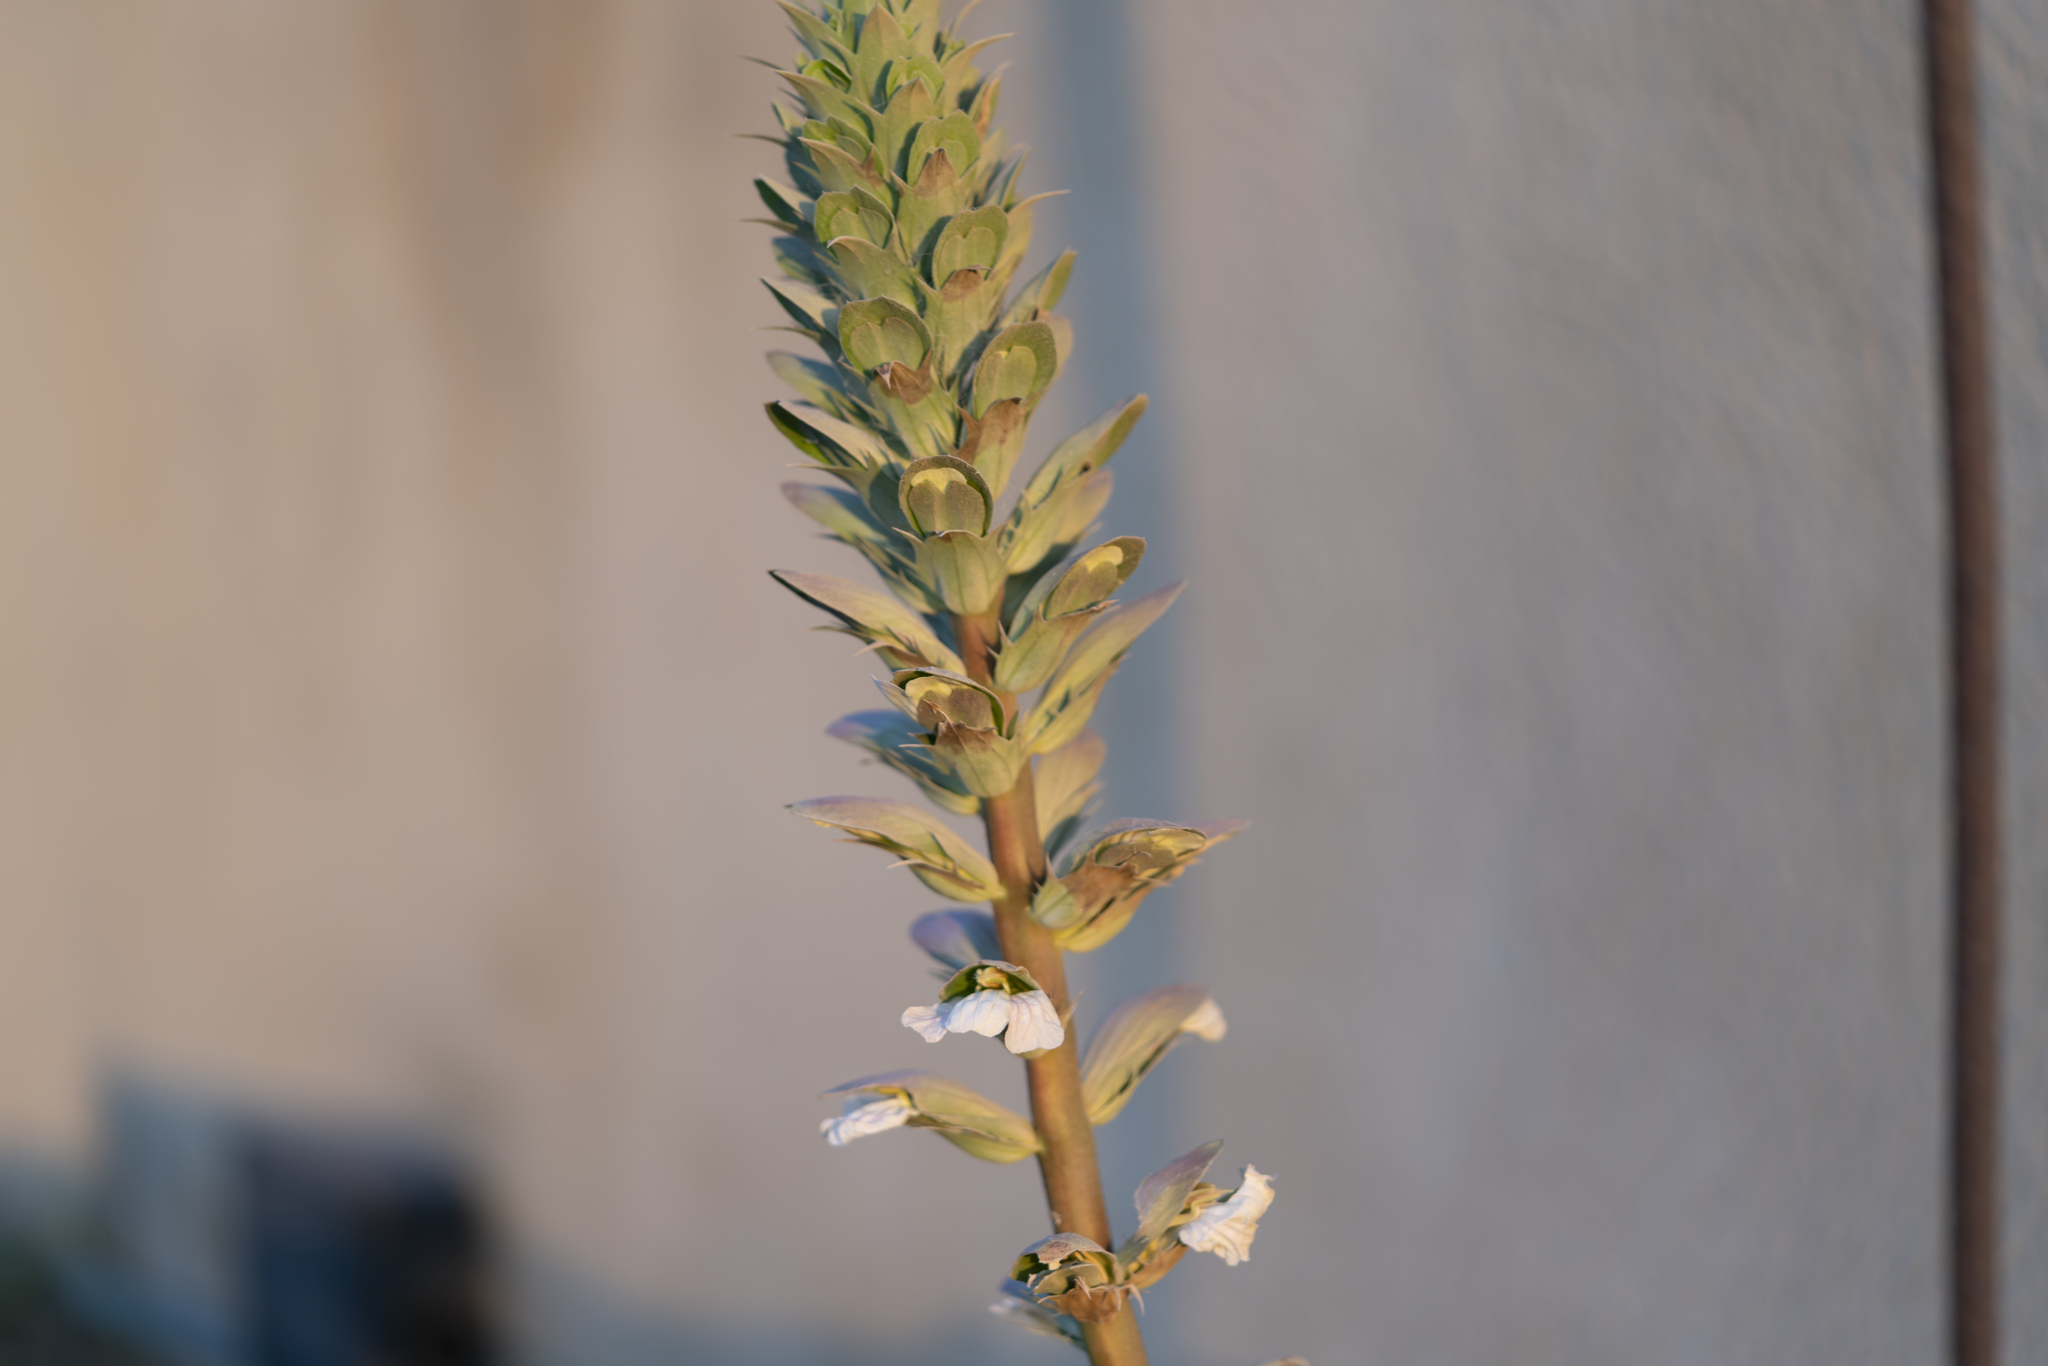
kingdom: Plantae
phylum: Tracheophyta
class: Magnoliopsida
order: Lamiales
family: Acanthaceae
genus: Acanthus
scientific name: Acanthus mollis
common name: Bear's-breech
